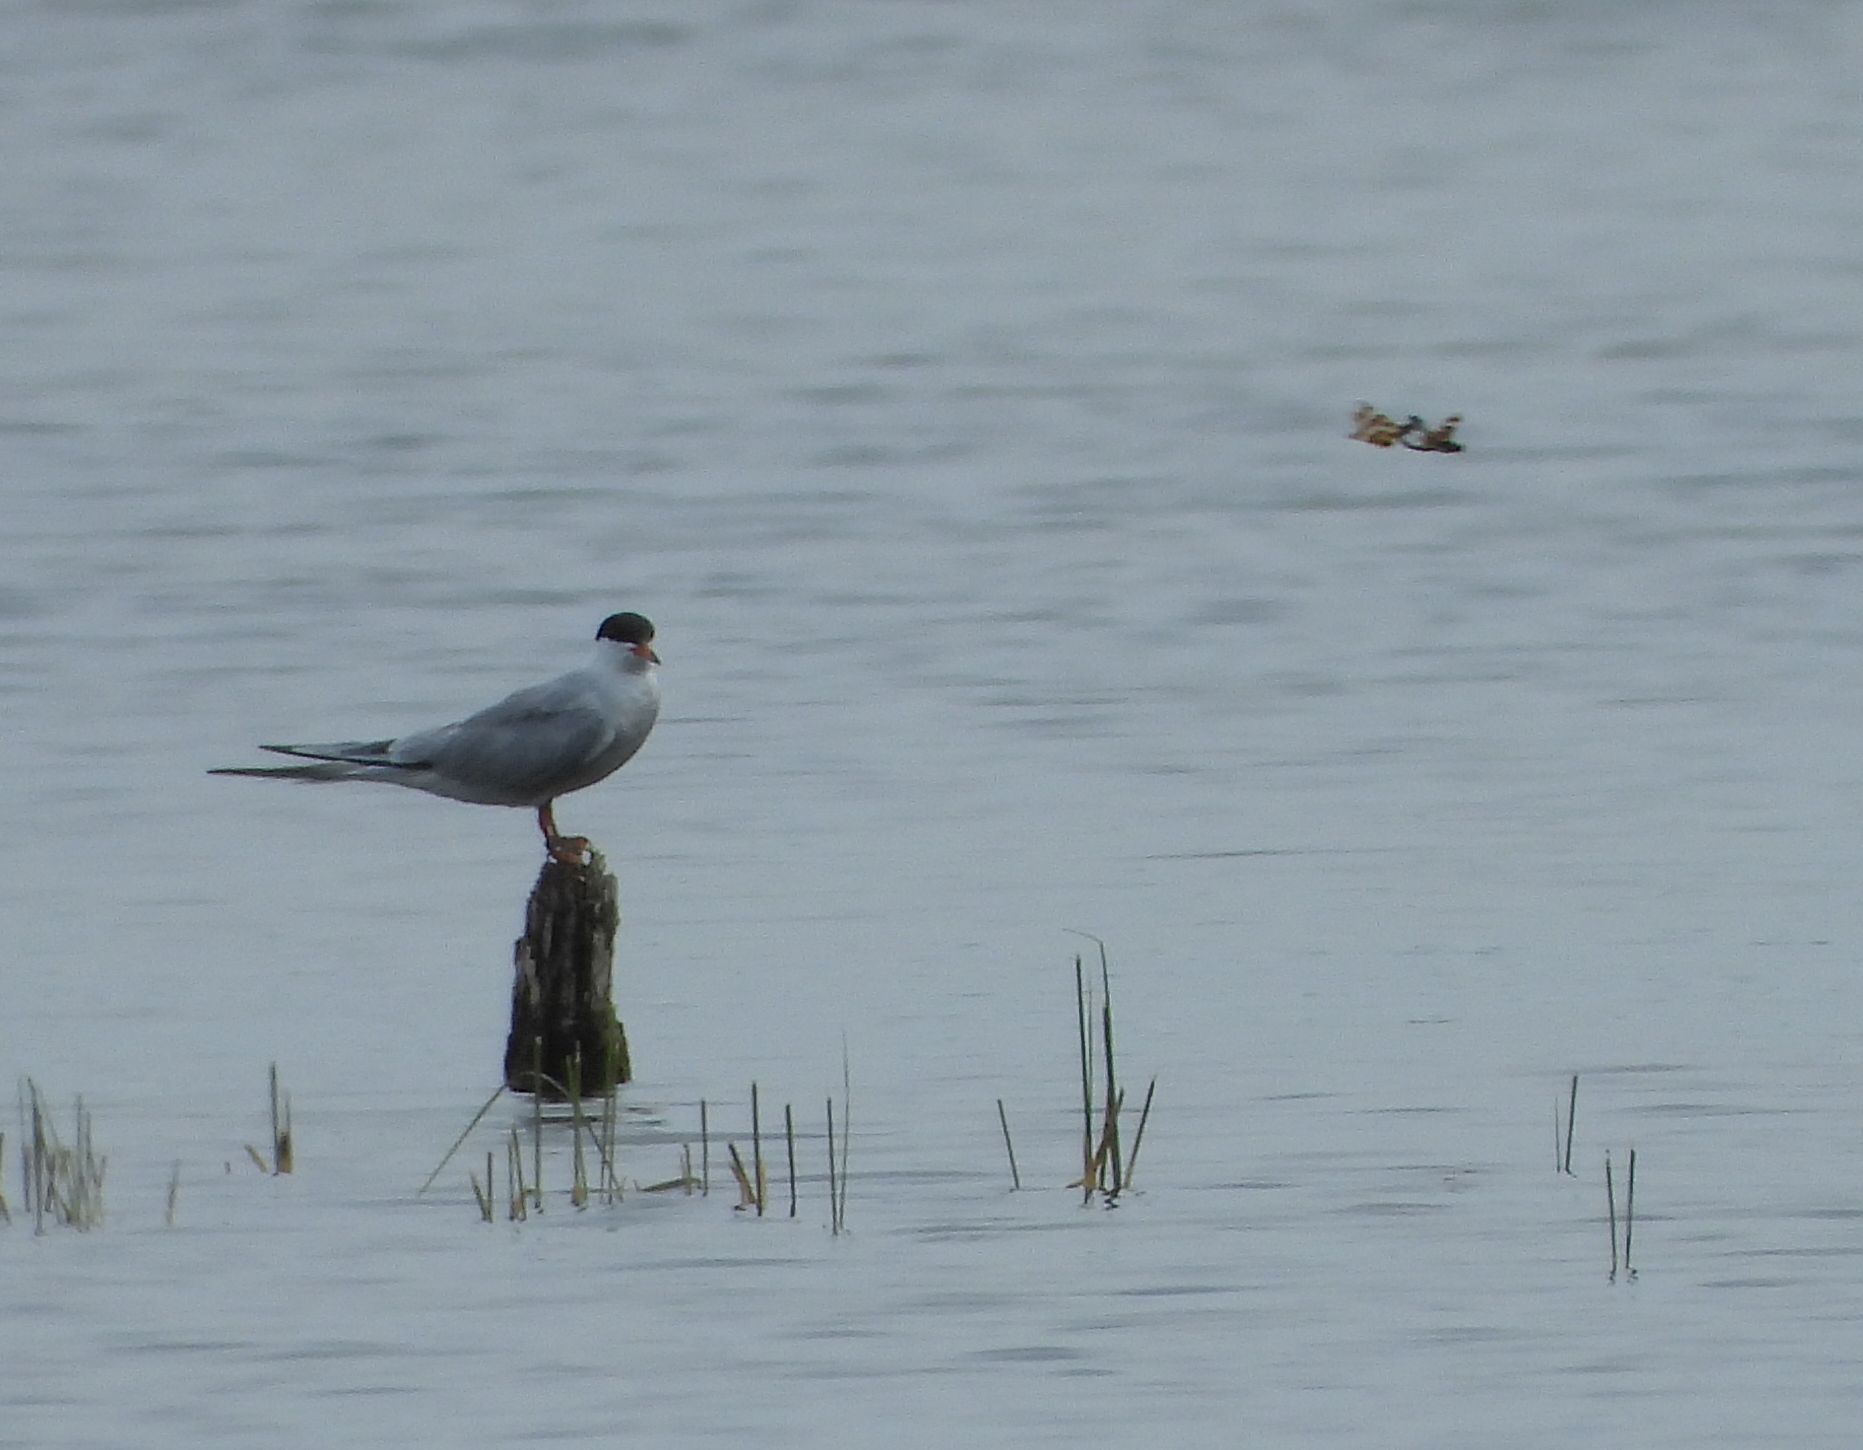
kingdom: Animalia
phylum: Chordata
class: Aves
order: Charadriiformes
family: Laridae
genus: Sterna
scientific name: Sterna hirundo
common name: Common tern
